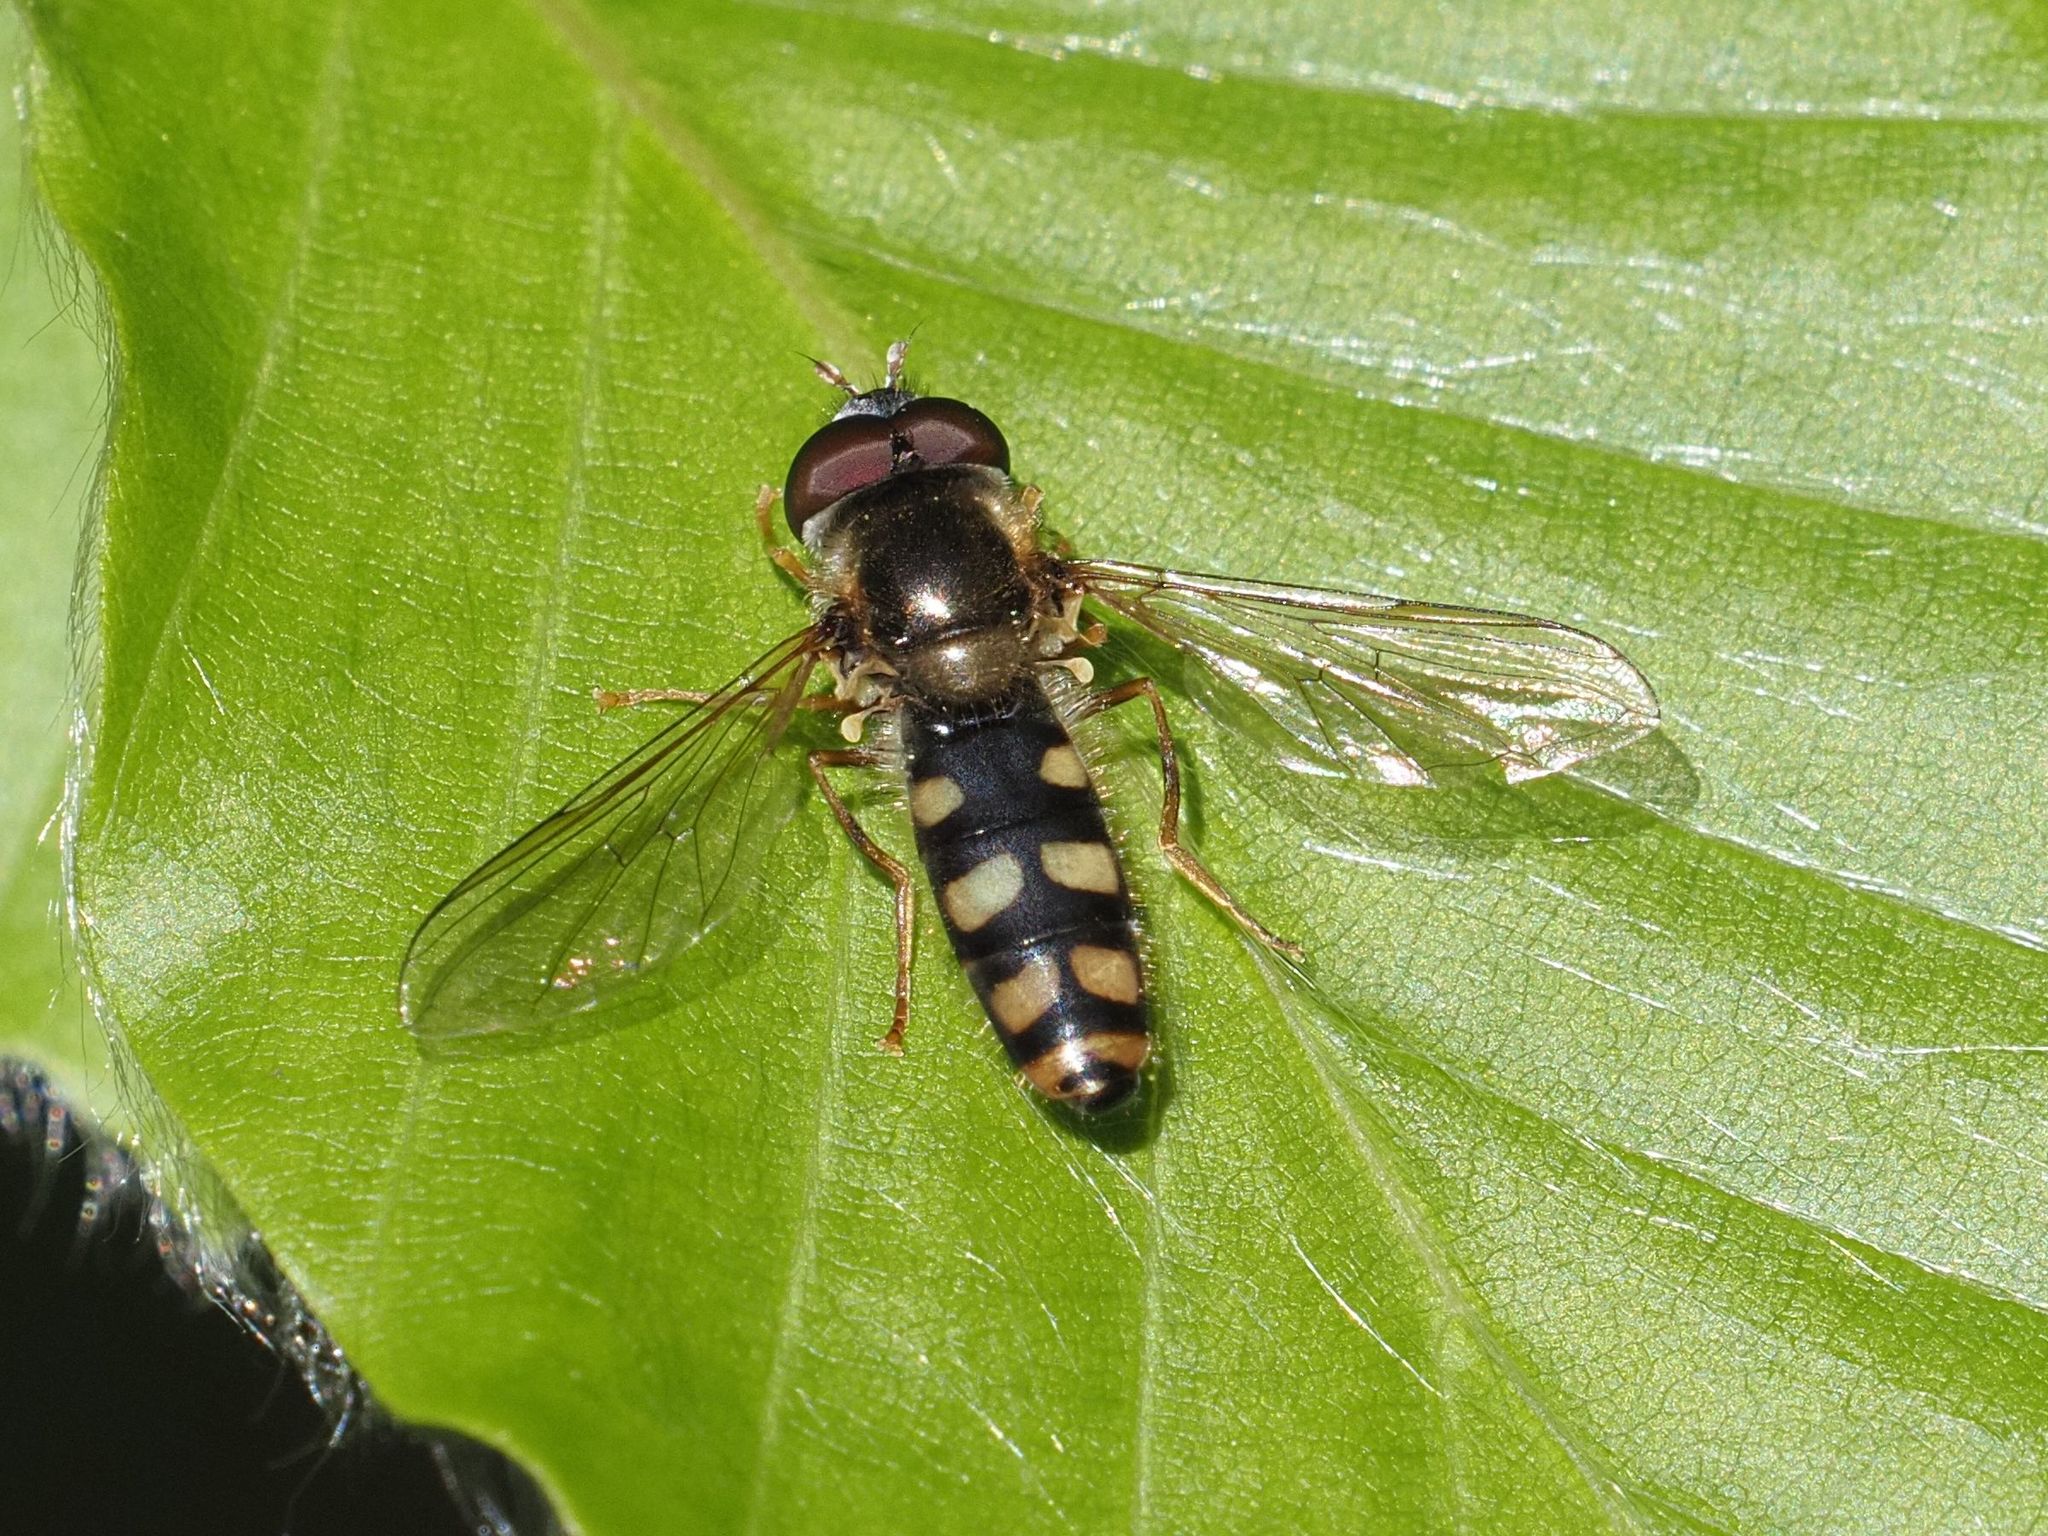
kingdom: Animalia
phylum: Arthropoda
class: Insecta
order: Diptera
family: Syrphidae
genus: Epistrophella
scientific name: Epistrophella euchromus
